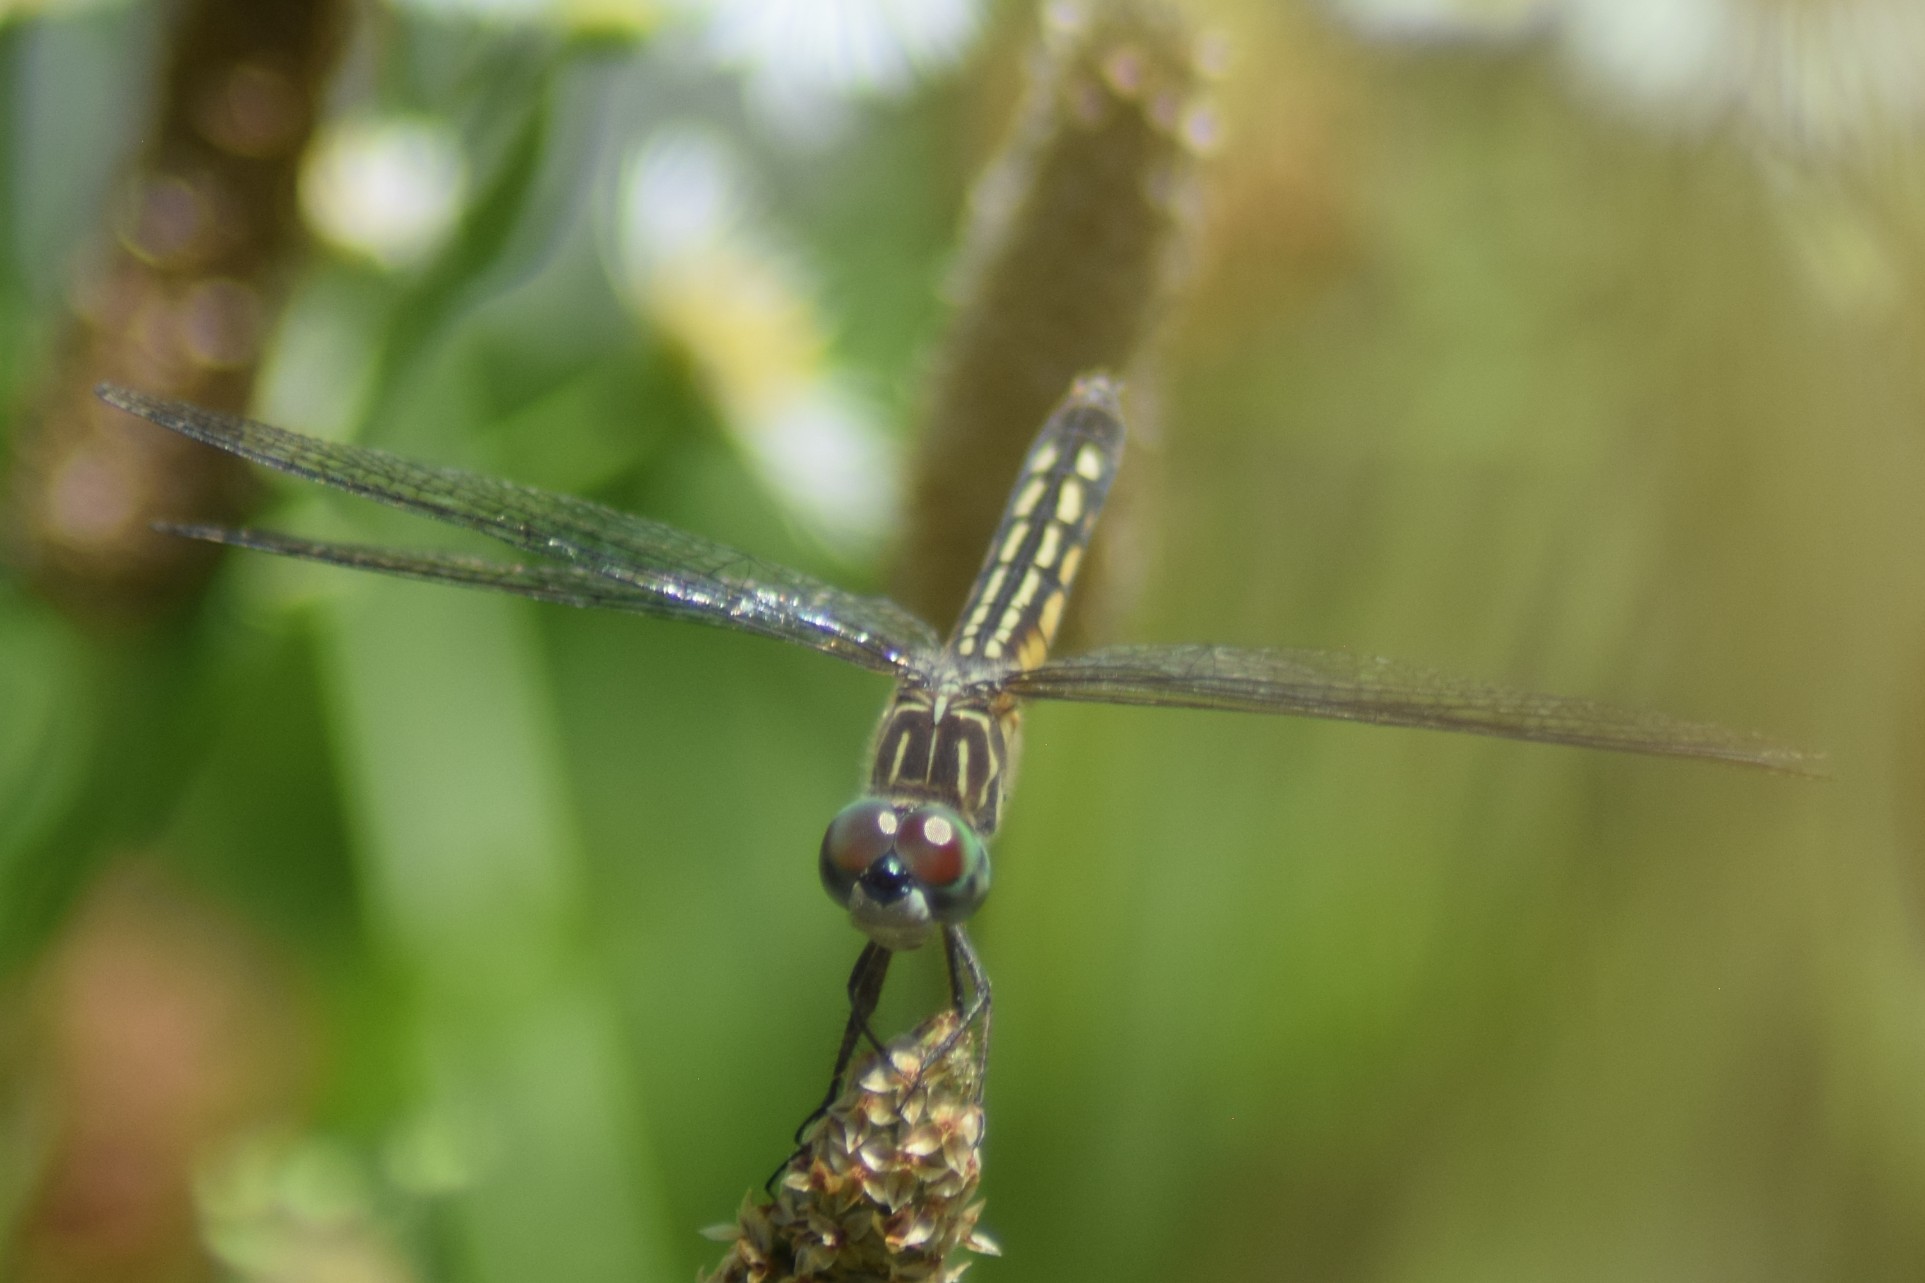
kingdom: Animalia
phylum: Arthropoda
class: Insecta
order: Odonata
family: Libellulidae
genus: Pachydiplax
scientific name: Pachydiplax longipennis
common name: Blue dasher
